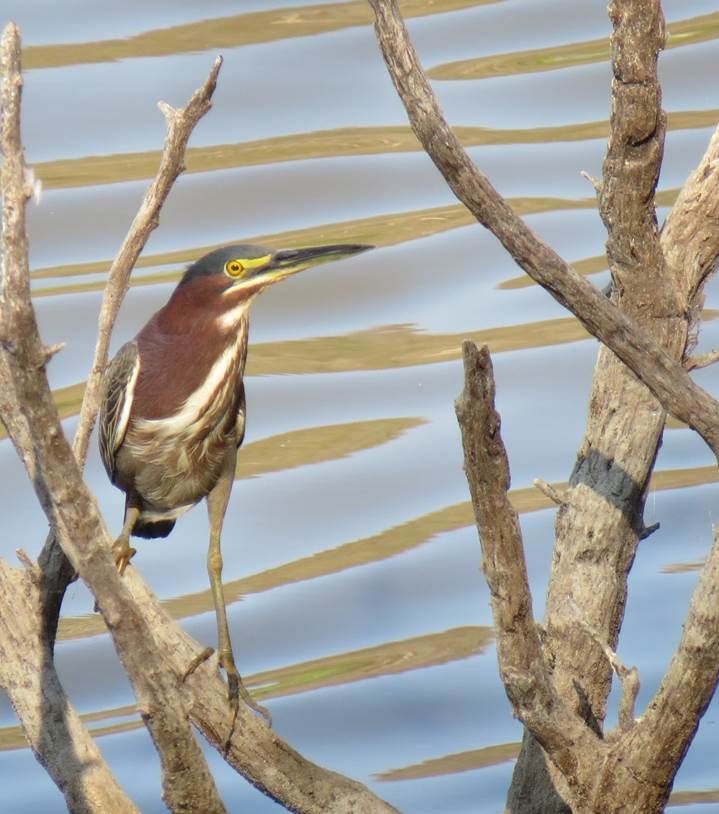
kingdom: Animalia
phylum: Chordata
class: Aves
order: Pelecaniformes
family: Ardeidae
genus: Butorides
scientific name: Butorides virescens
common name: Green heron
